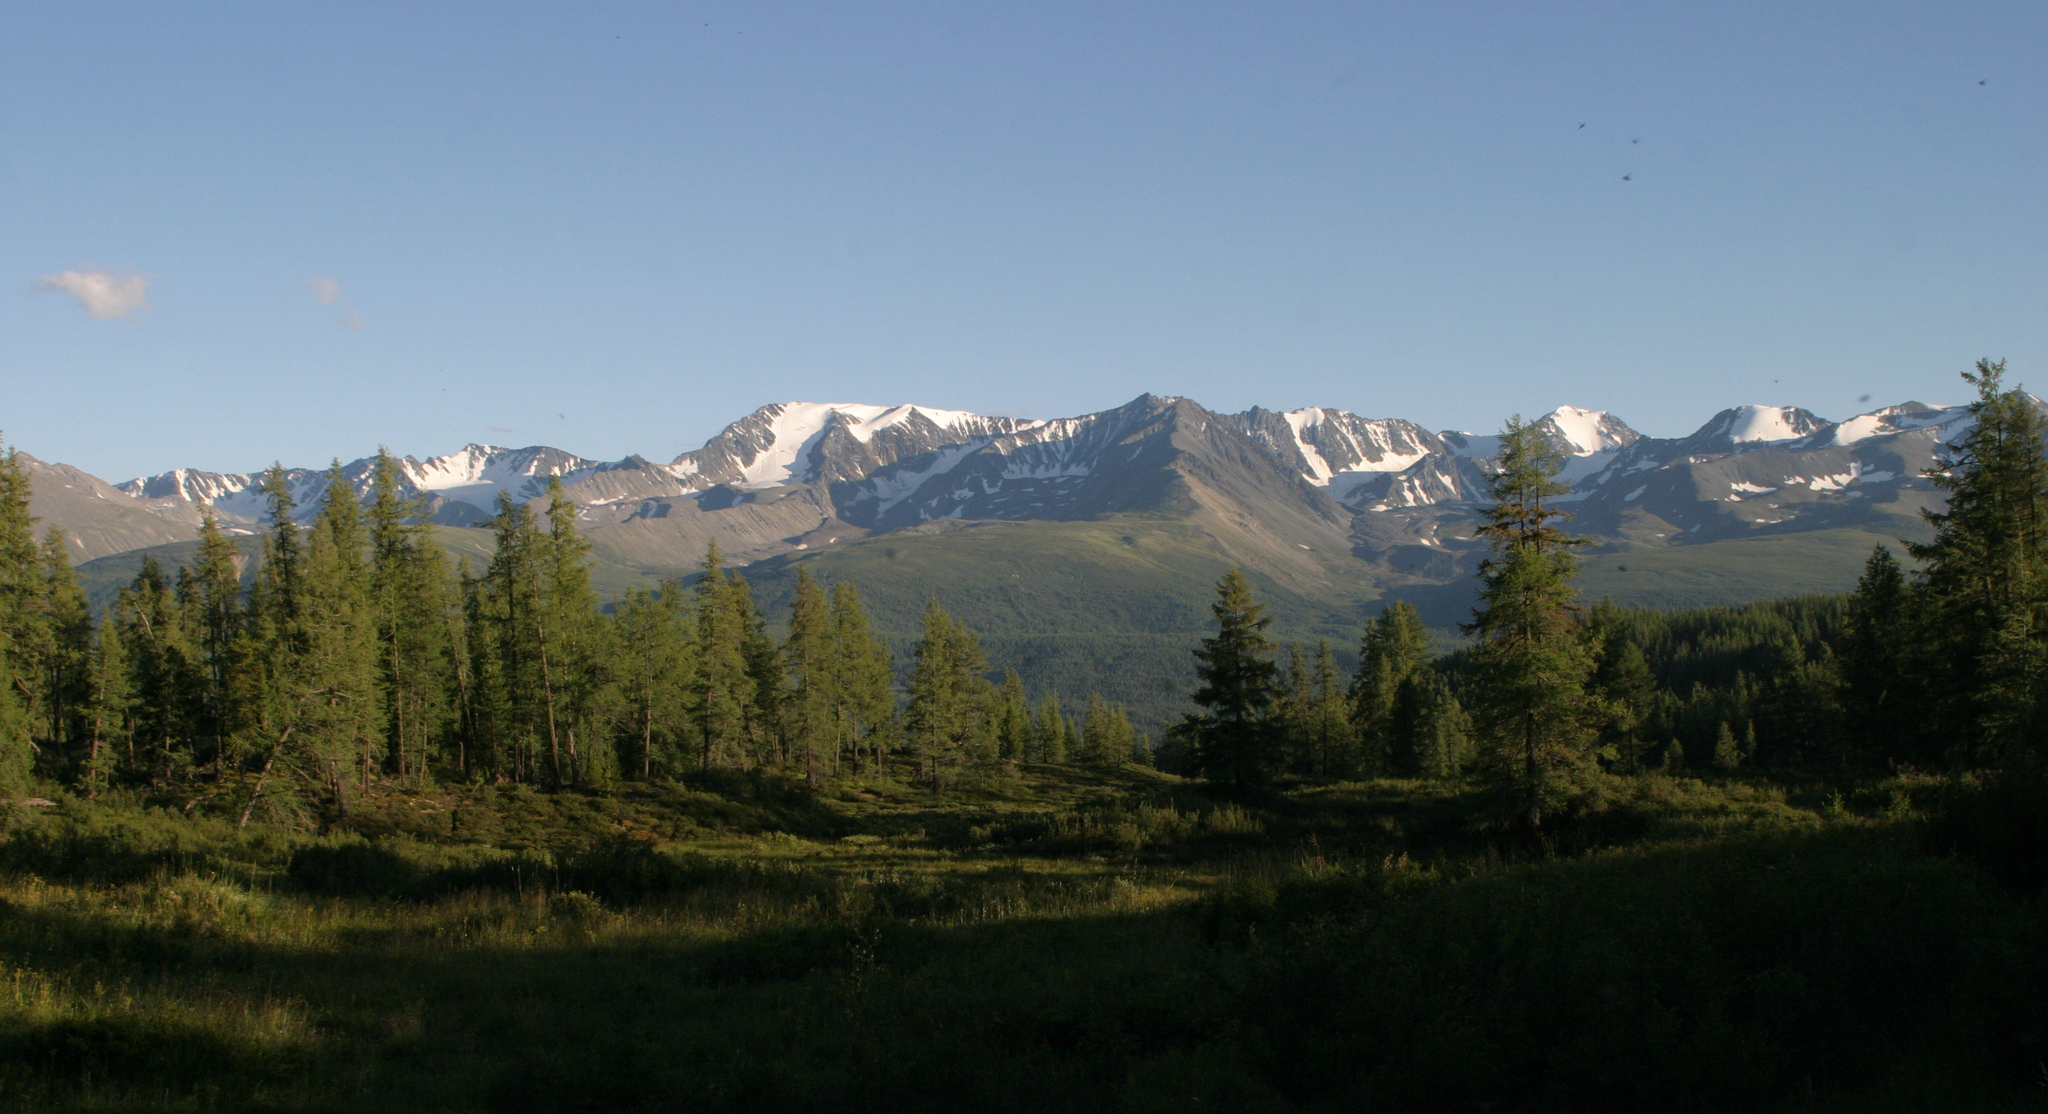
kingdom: Plantae
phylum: Tracheophyta
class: Pinopsida
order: Pinales
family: Pinaceae
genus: Larix
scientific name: Larix sibirica
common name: Siberian larch
